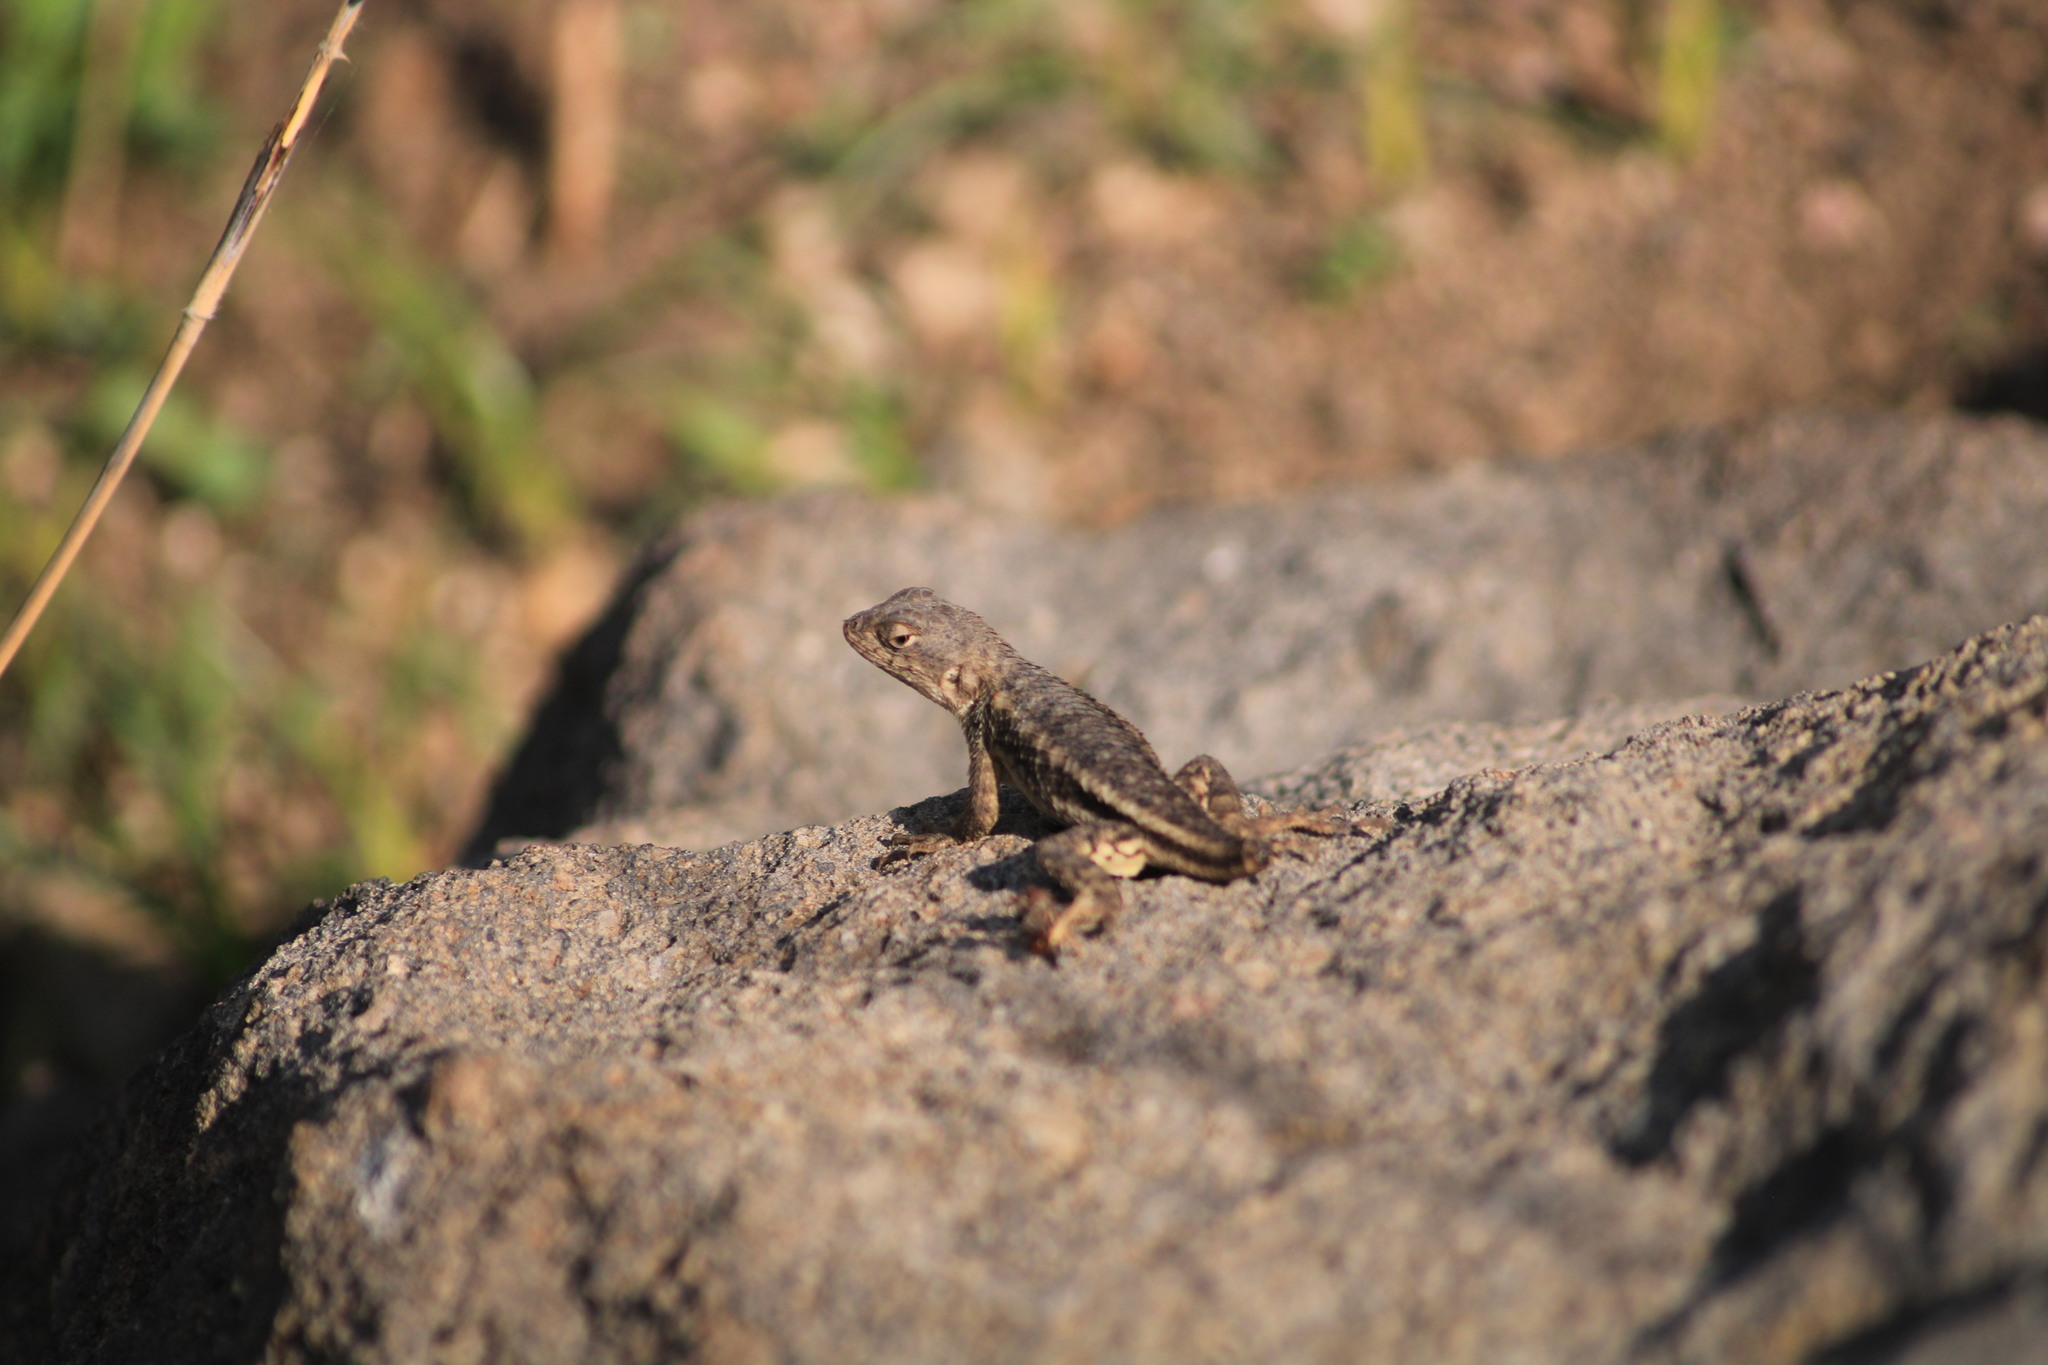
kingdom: Animalia
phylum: Chordata
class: Squamata
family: Phrynosomatidae
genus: Sceloporus
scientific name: Sceloporus spinosus
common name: Blue-spotted spiny lizard [caeruleopunctatus]
